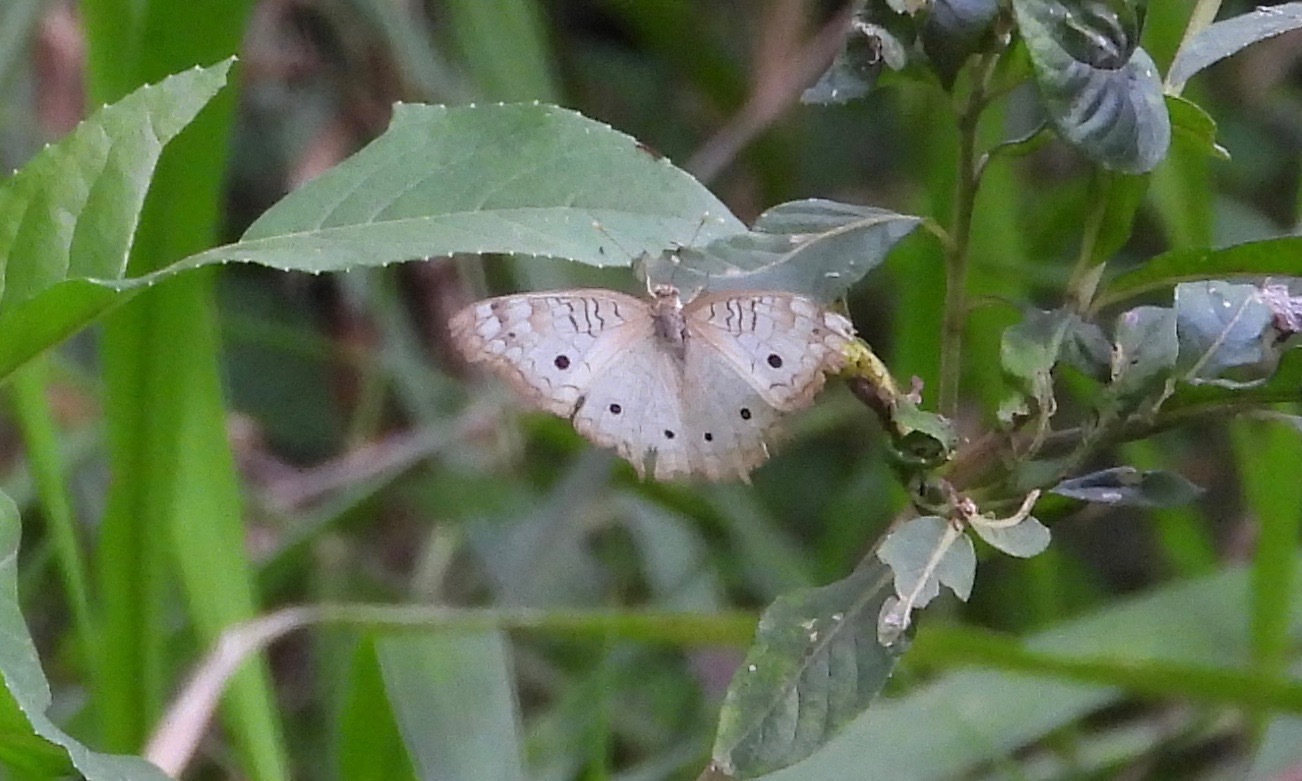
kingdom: Animalia
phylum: Arthropoda
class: Insecta
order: Lepidoptera
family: Nymphalidae
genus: Anartia
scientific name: Anartia jatrophae
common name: White peacock
